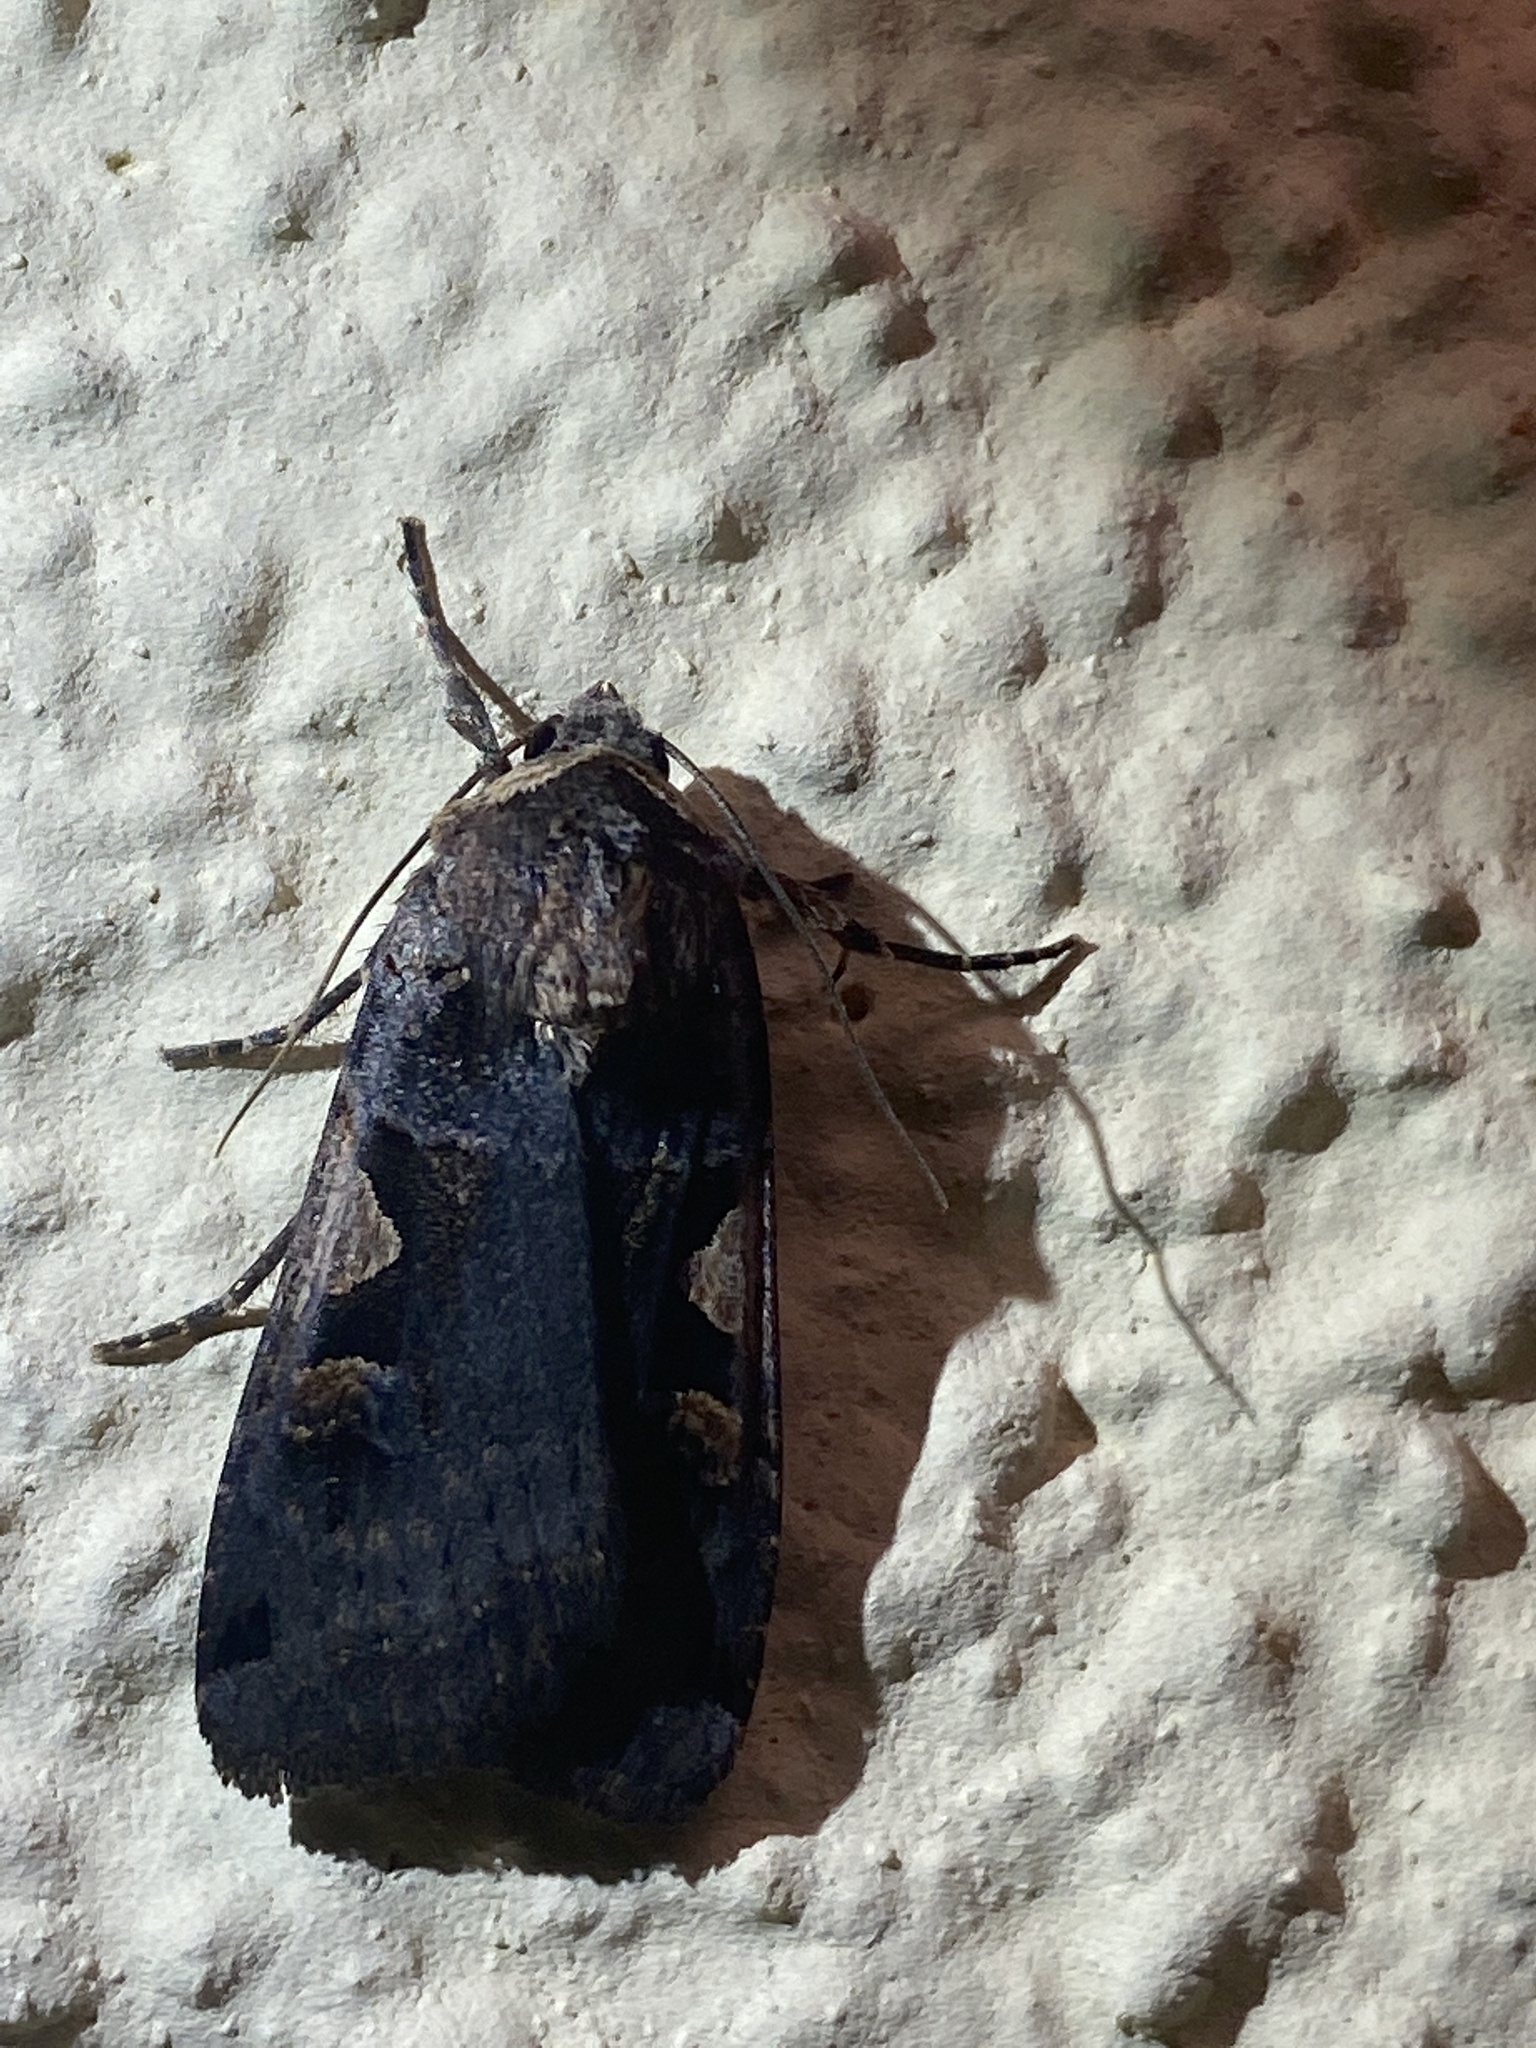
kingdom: Animalia
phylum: Arthropoda
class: Insecta
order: Lepidoptera
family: Noctuidae
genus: Xestia
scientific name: Xestia c-nigrum
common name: Setaceous hebrew character
